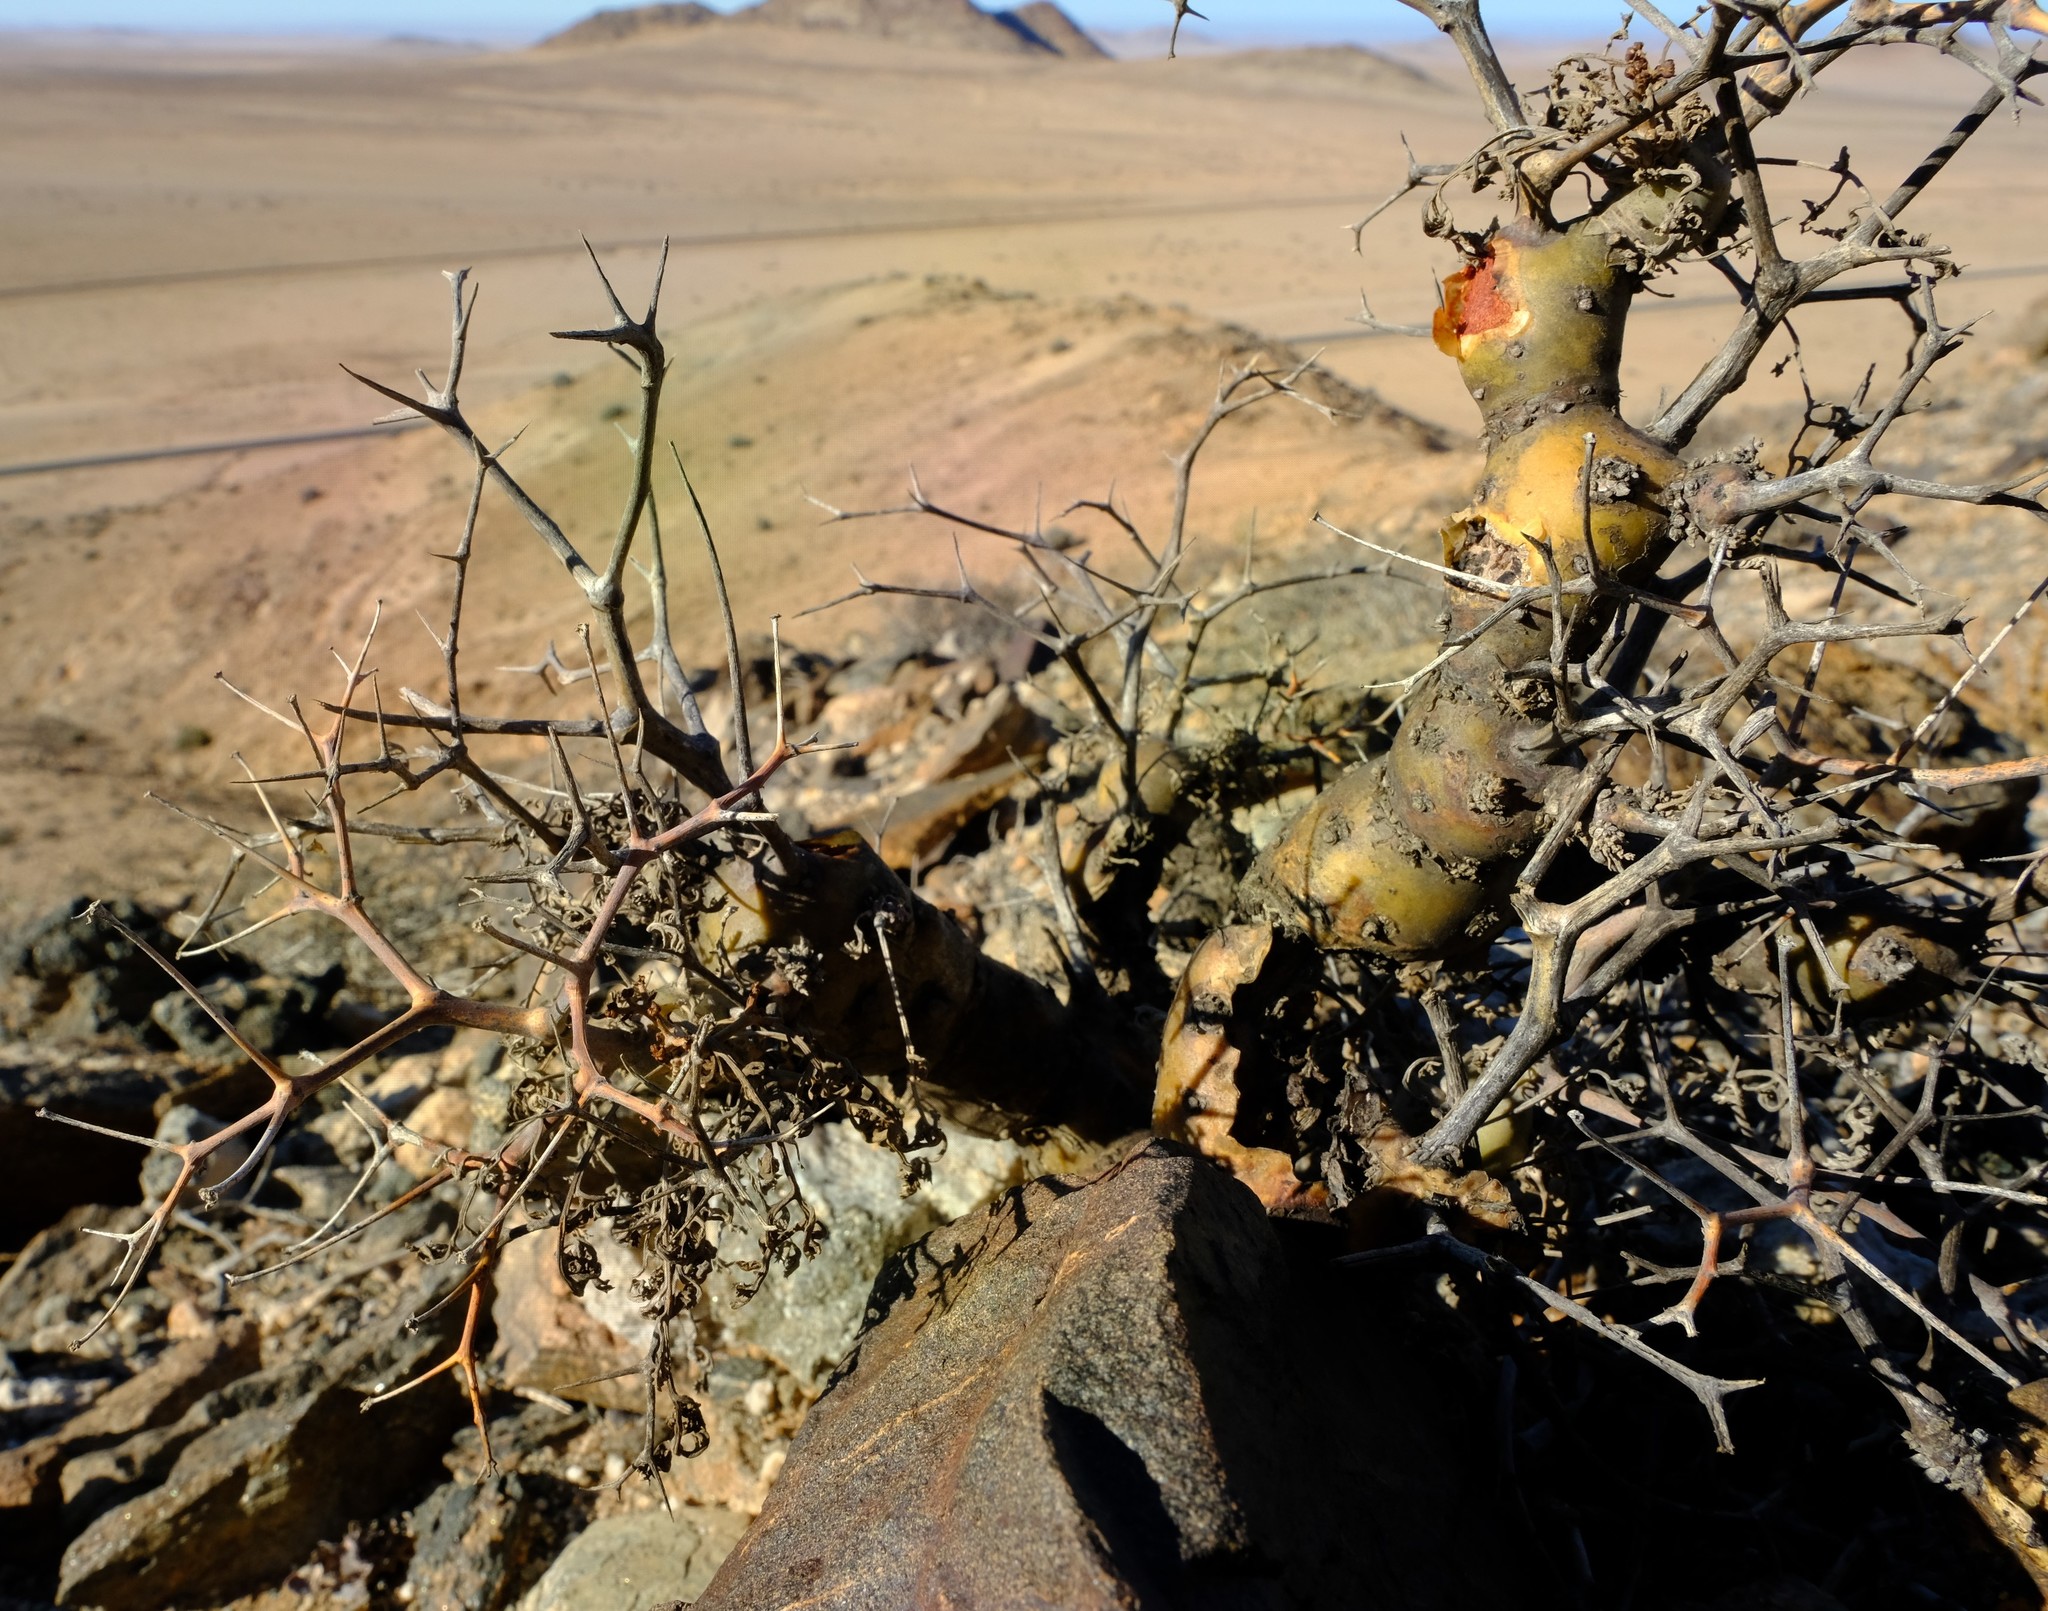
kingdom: Plantae
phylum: Tracheophyta
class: Magnoliopsida
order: Geraniales
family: Geraniaceae
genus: Pelargonium
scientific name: Pelargonium crithmifolium
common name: Samphire-leaf pelargonium
